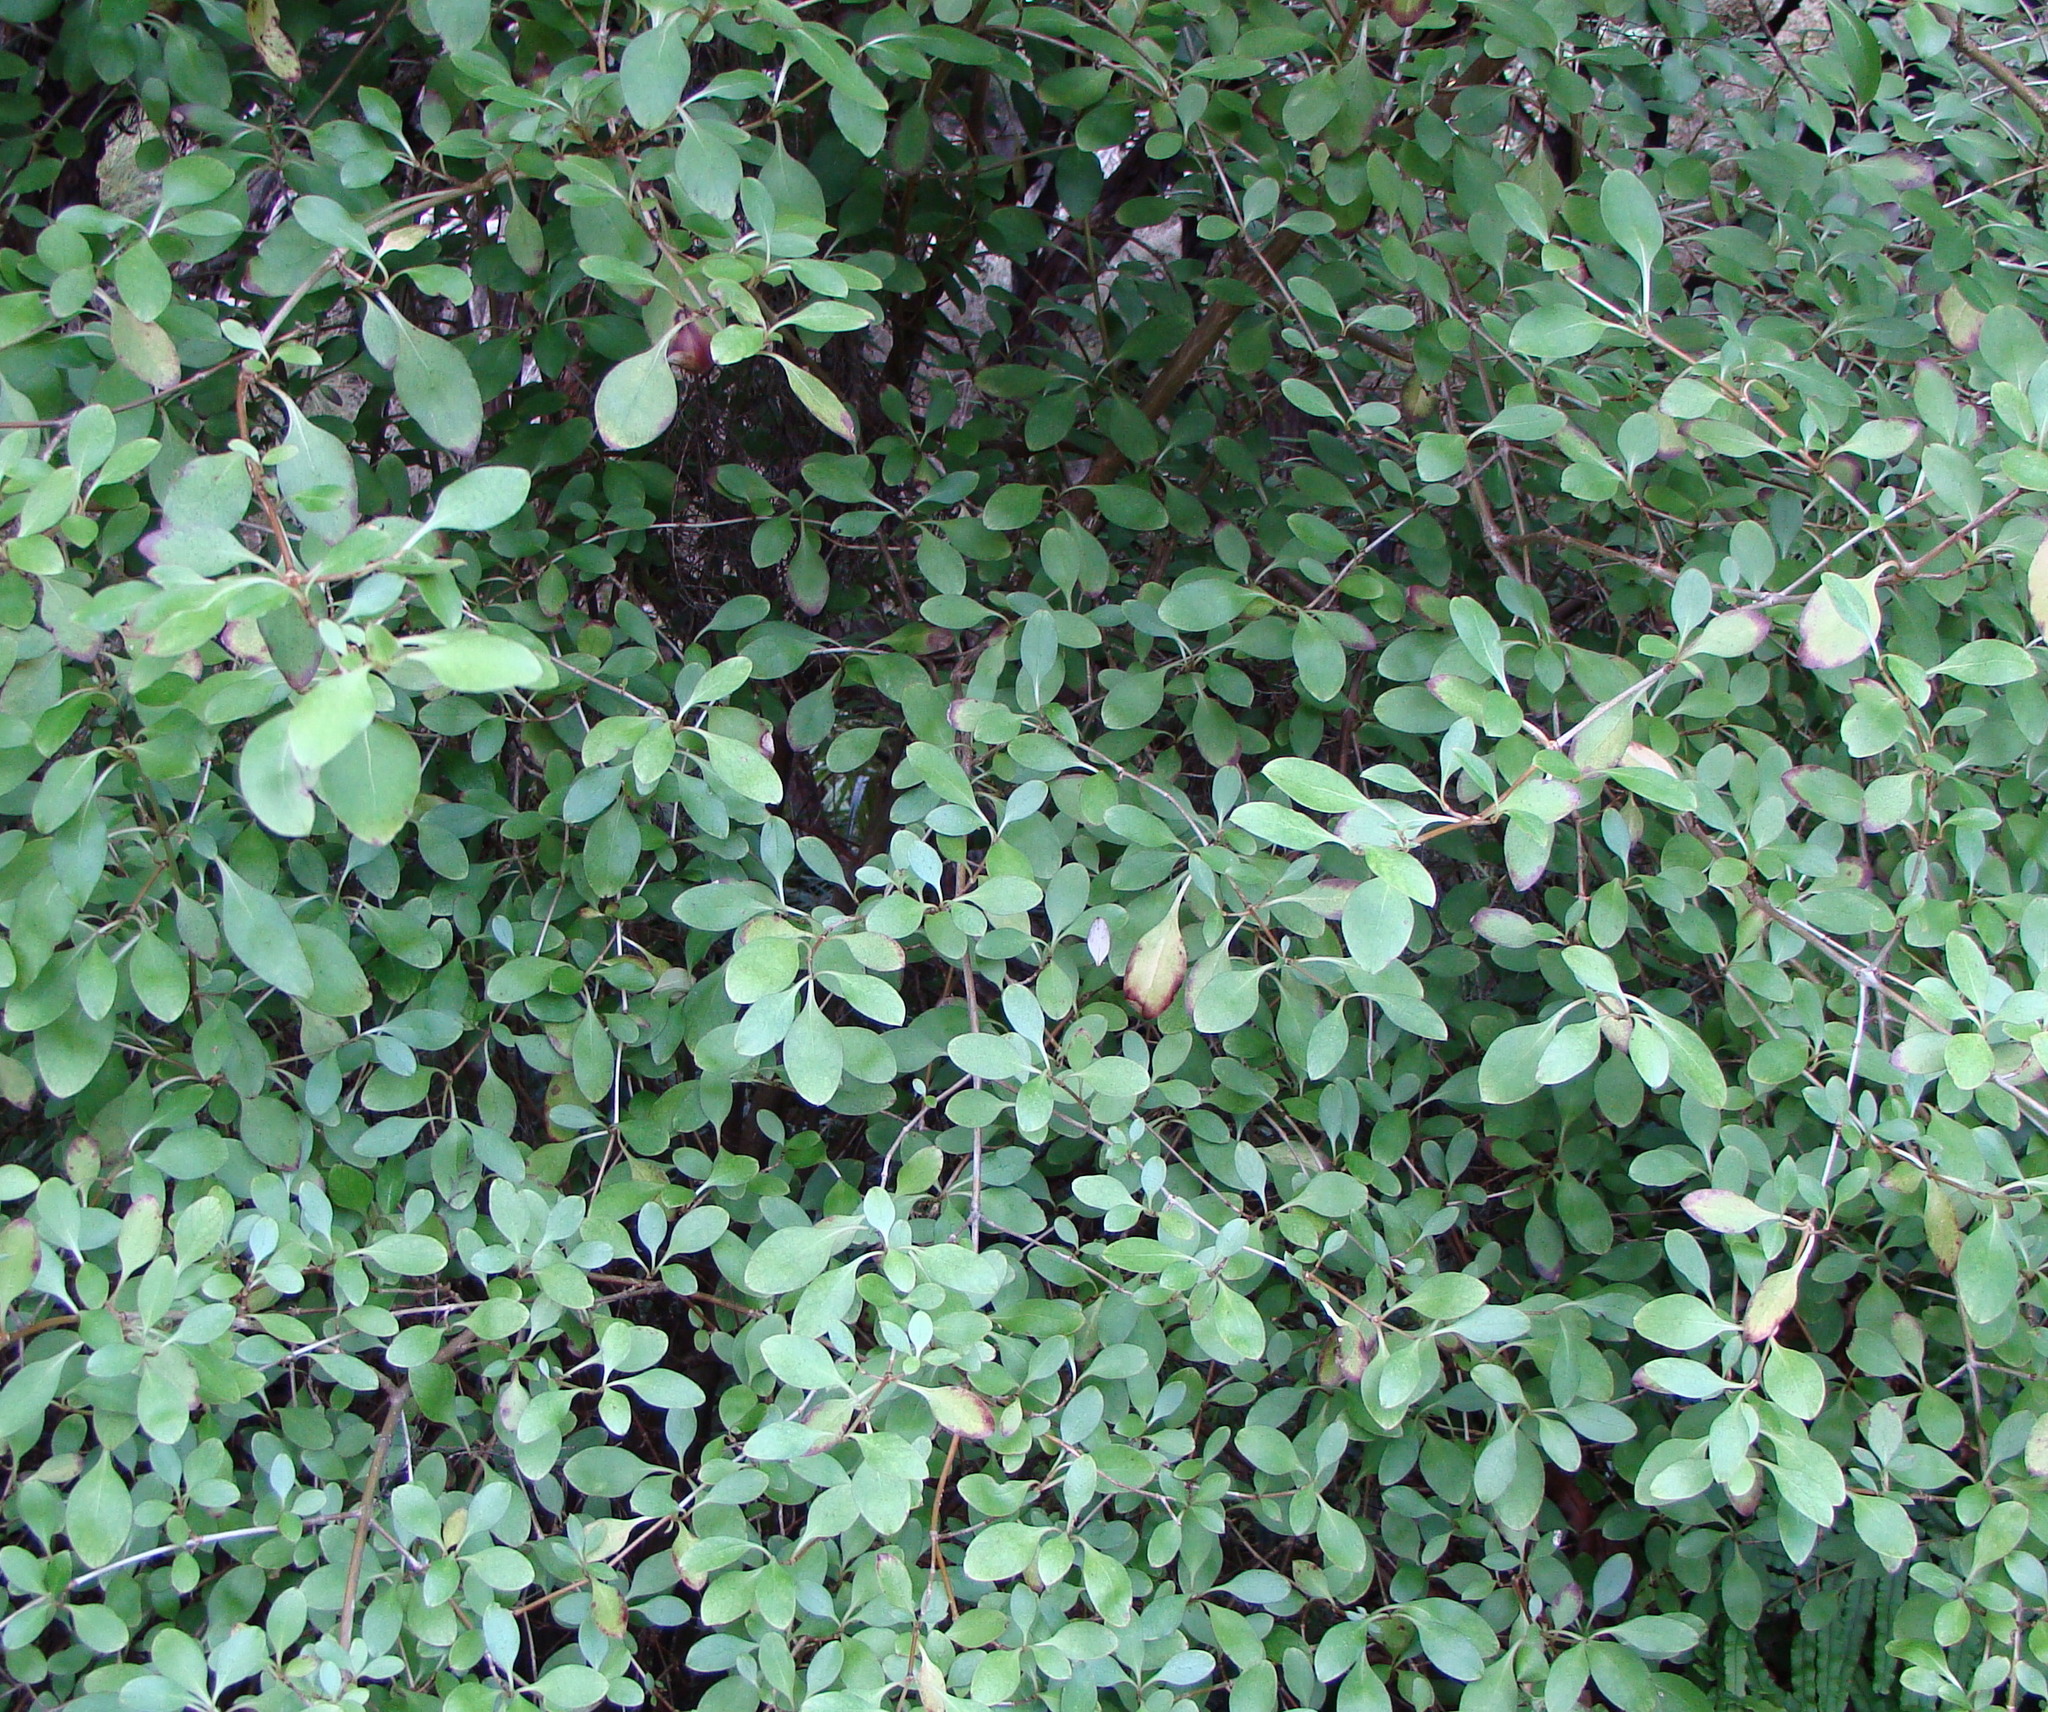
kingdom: Plantae
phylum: Tracheophyta
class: Magnoliopsida
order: Gentianales
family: Rubiaceae
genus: Coprosma
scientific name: Coprosma foetidissima
